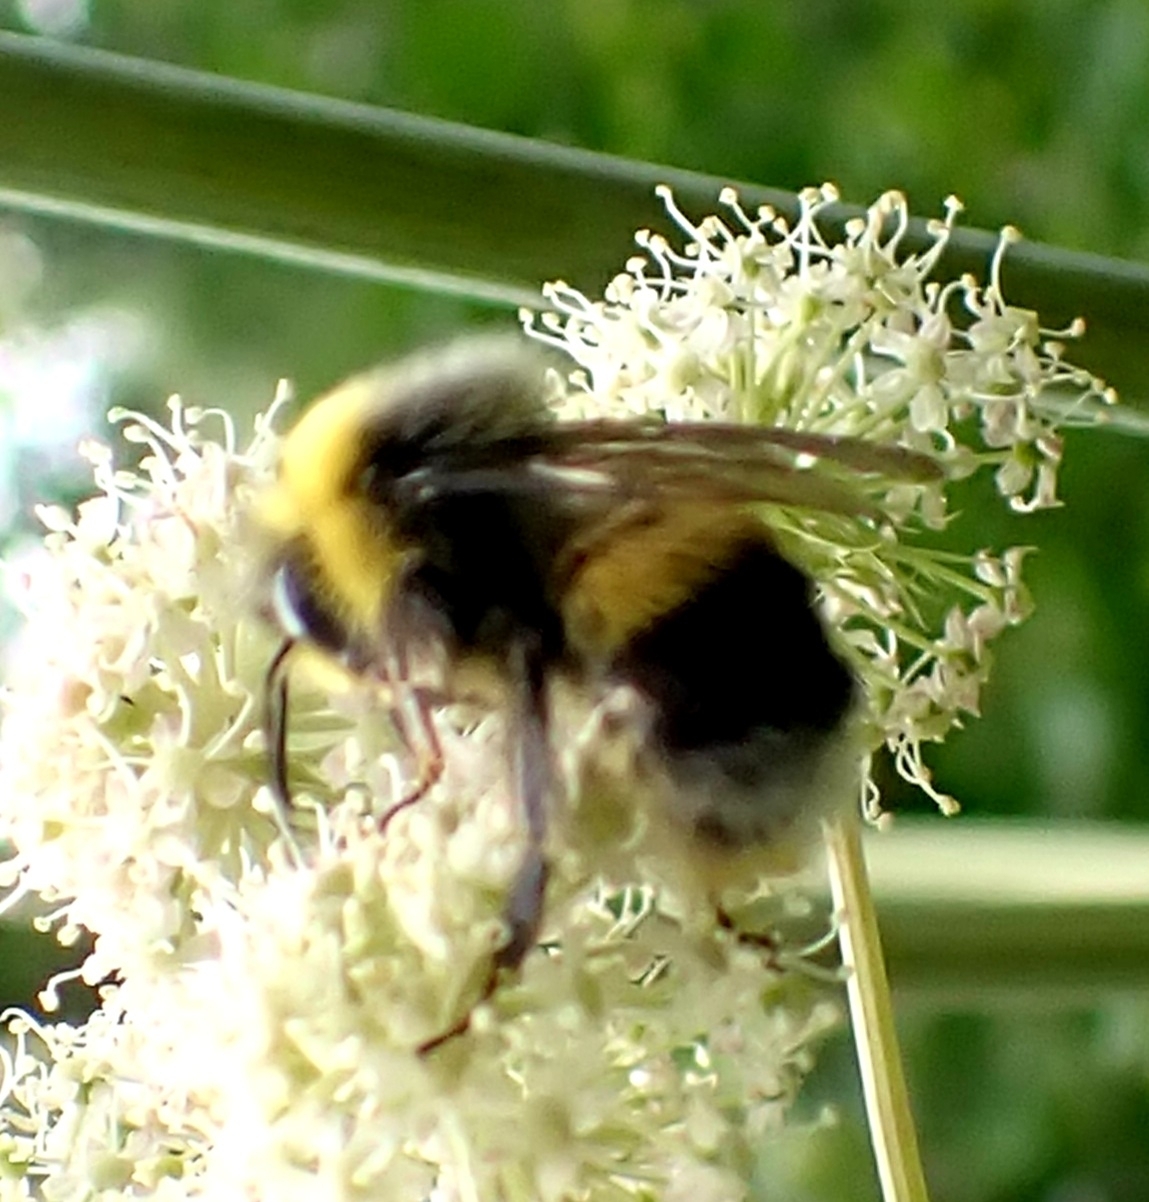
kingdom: Animalia
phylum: Arthropoda
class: Insecta
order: Hymenoptera
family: Apidae
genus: Bombus
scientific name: Bombus lucorum
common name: White-tailed bumblebee
